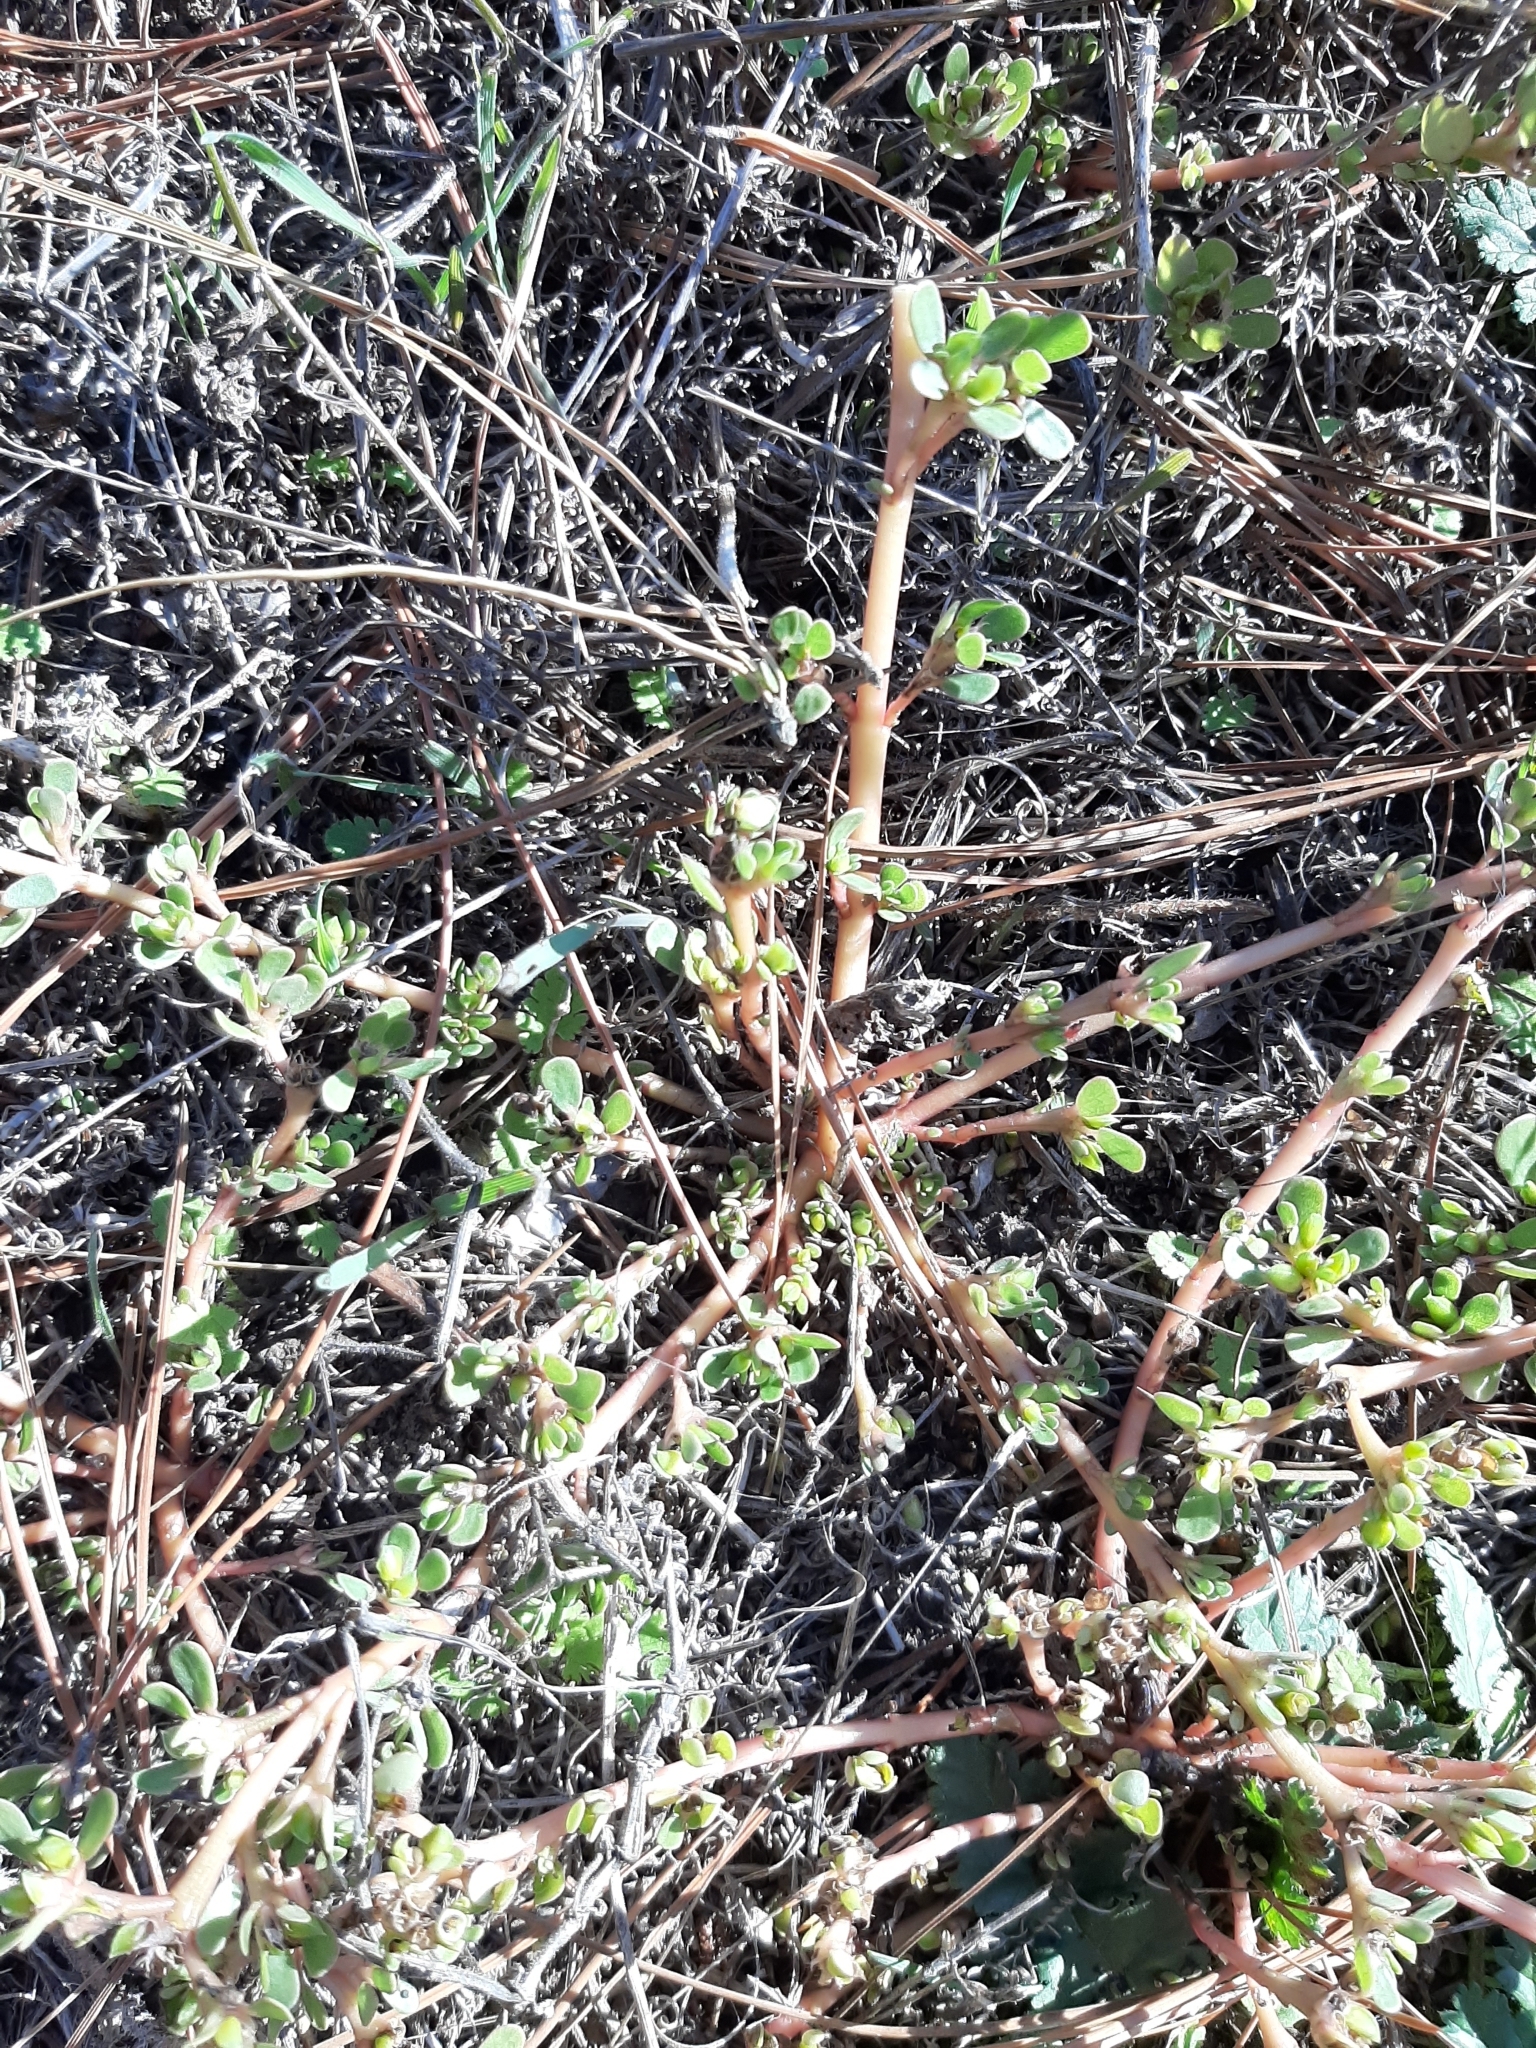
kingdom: Plantae
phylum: Tracheophyta
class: Magnoliopsida
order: Caryophyllales
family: Portulacaceae
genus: Portulaca
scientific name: Portulaca oleracea
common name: Common purslane
